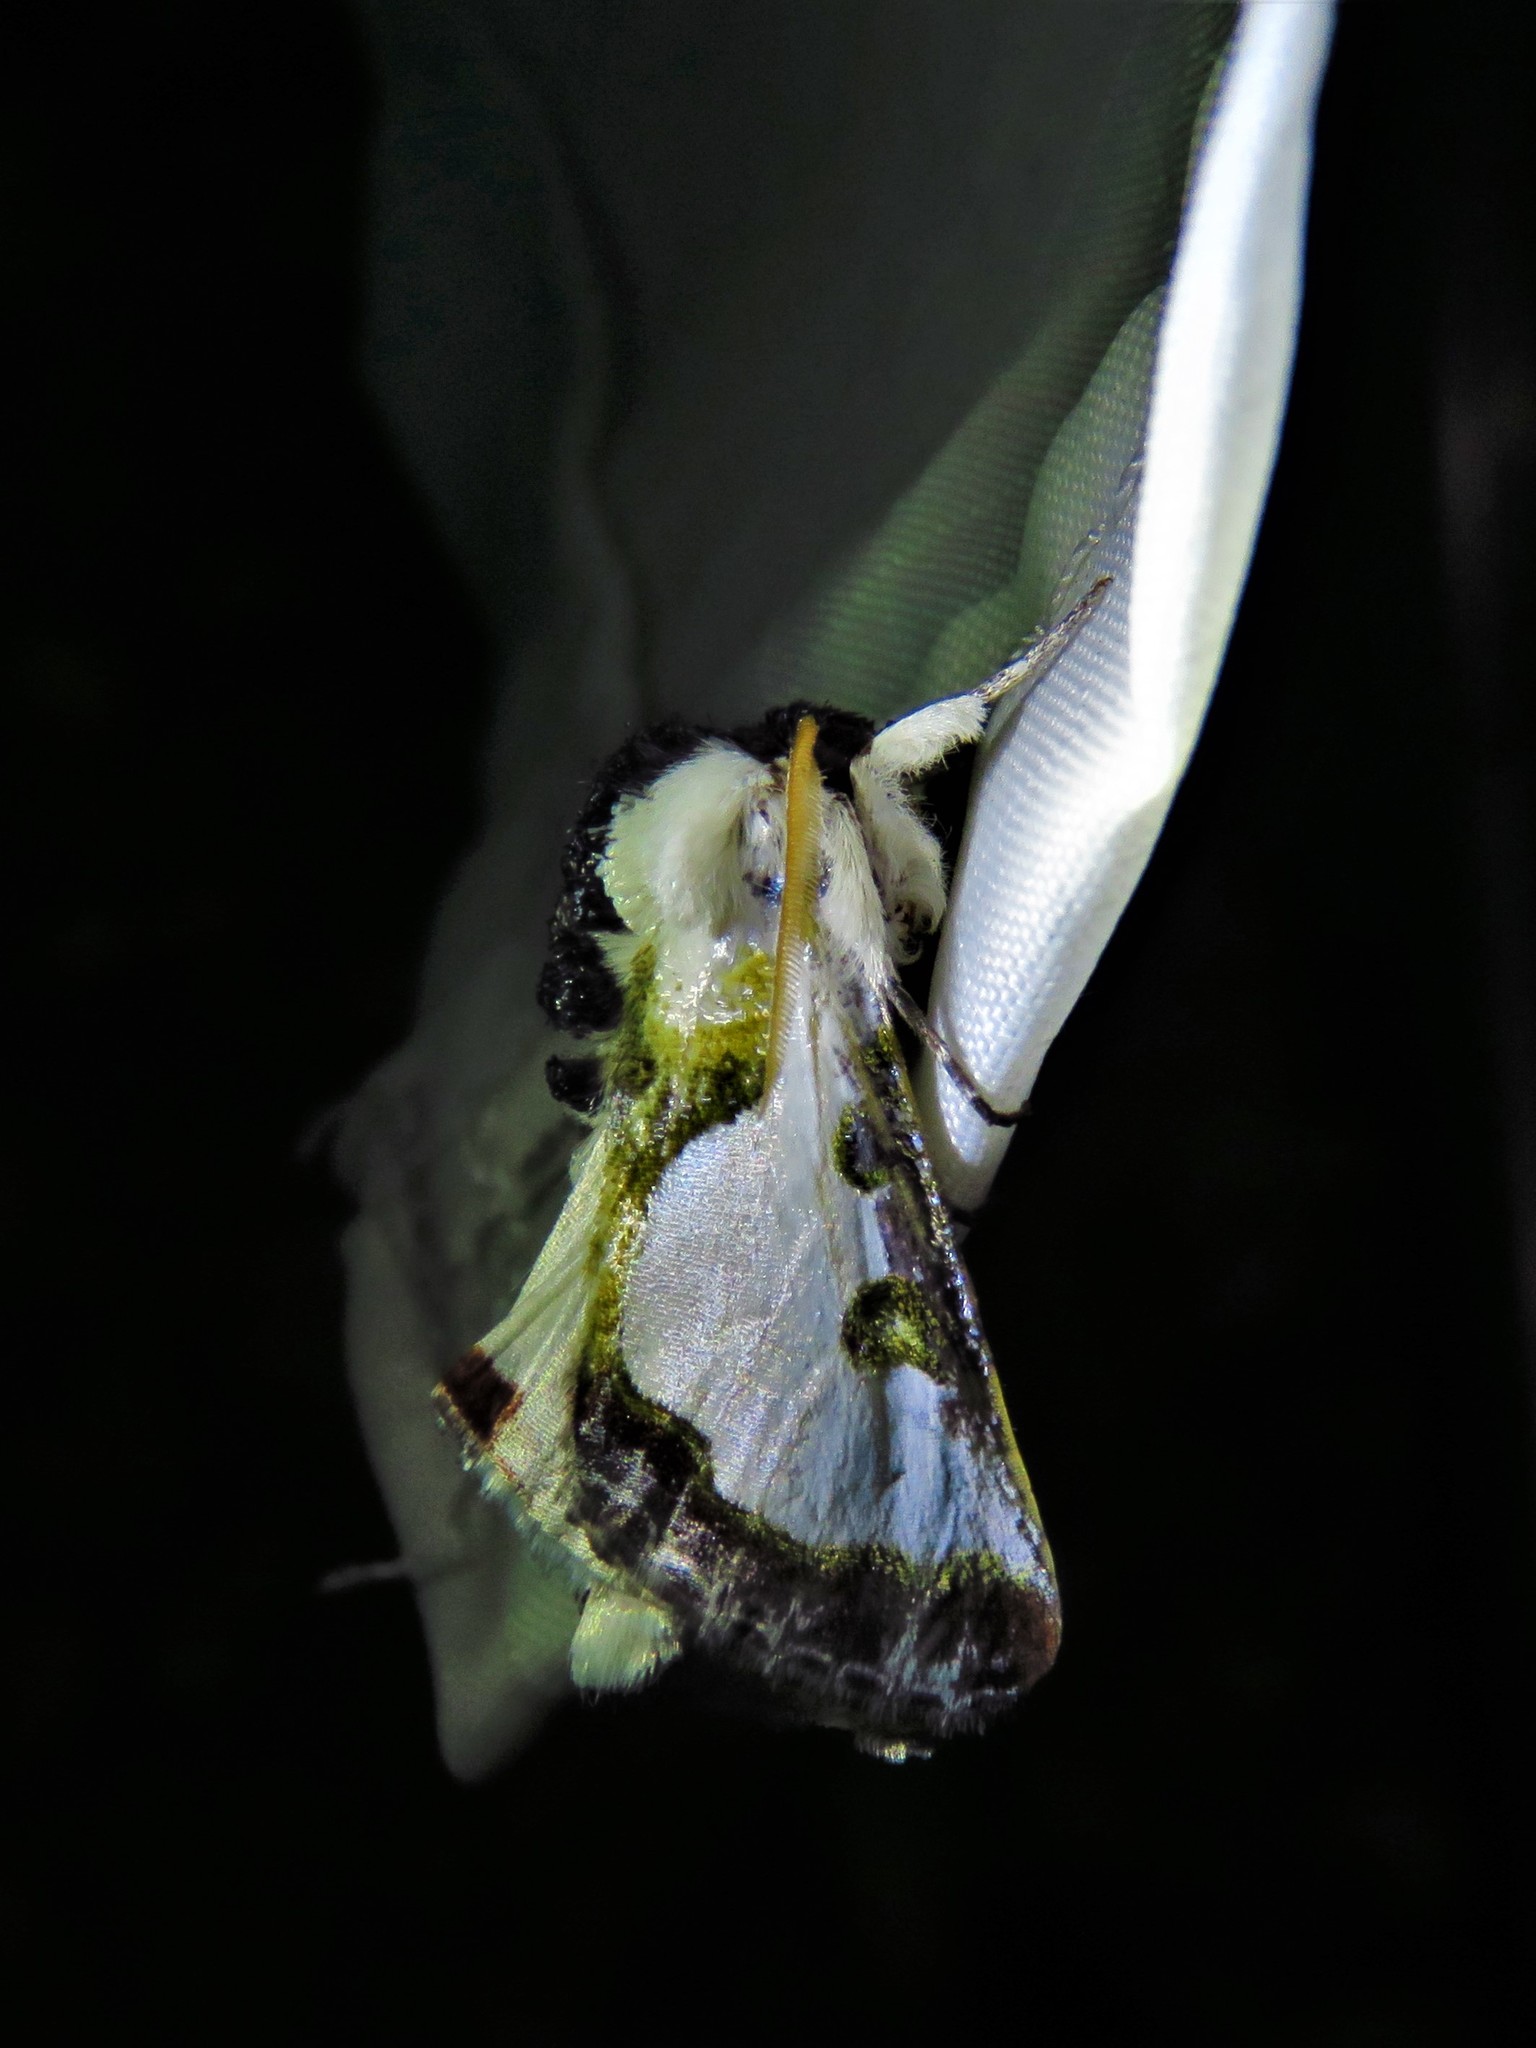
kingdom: Animalia
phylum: Arthropoda
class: Insecta
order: Lepidoptera
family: Noctuidae
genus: Xerociris
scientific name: Xerociris wilsonii
